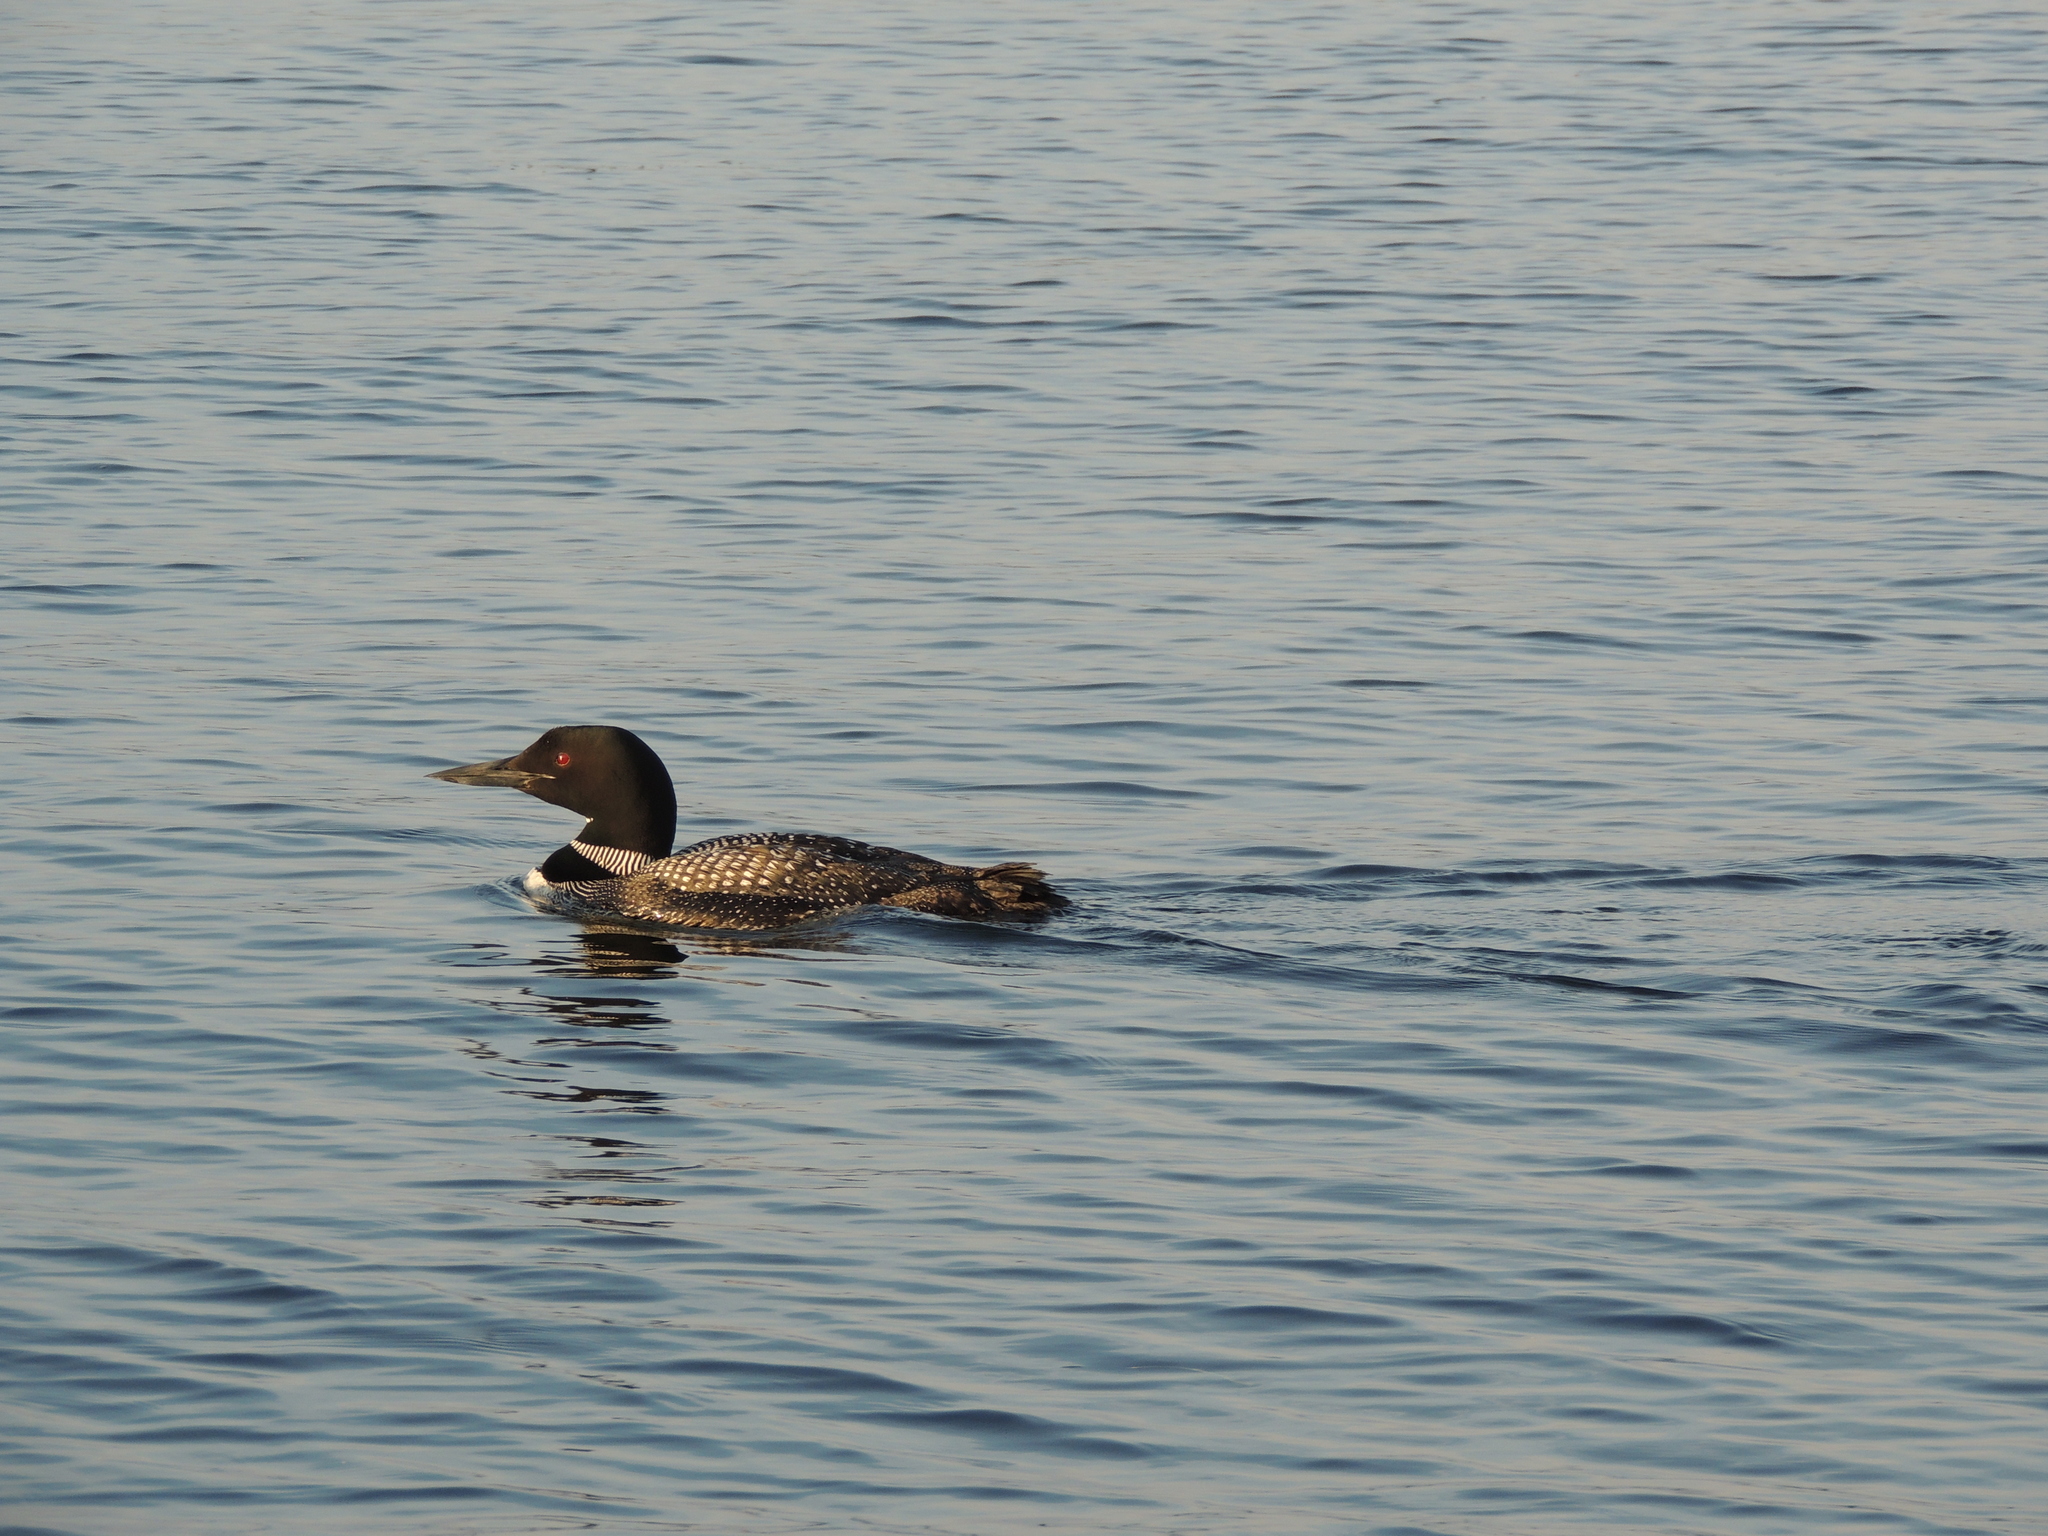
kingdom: Animalia
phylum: Chordata
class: Aves
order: Gaviiformes
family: Gaviidae
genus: Gavia
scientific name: Gavia immer
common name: Common loon
